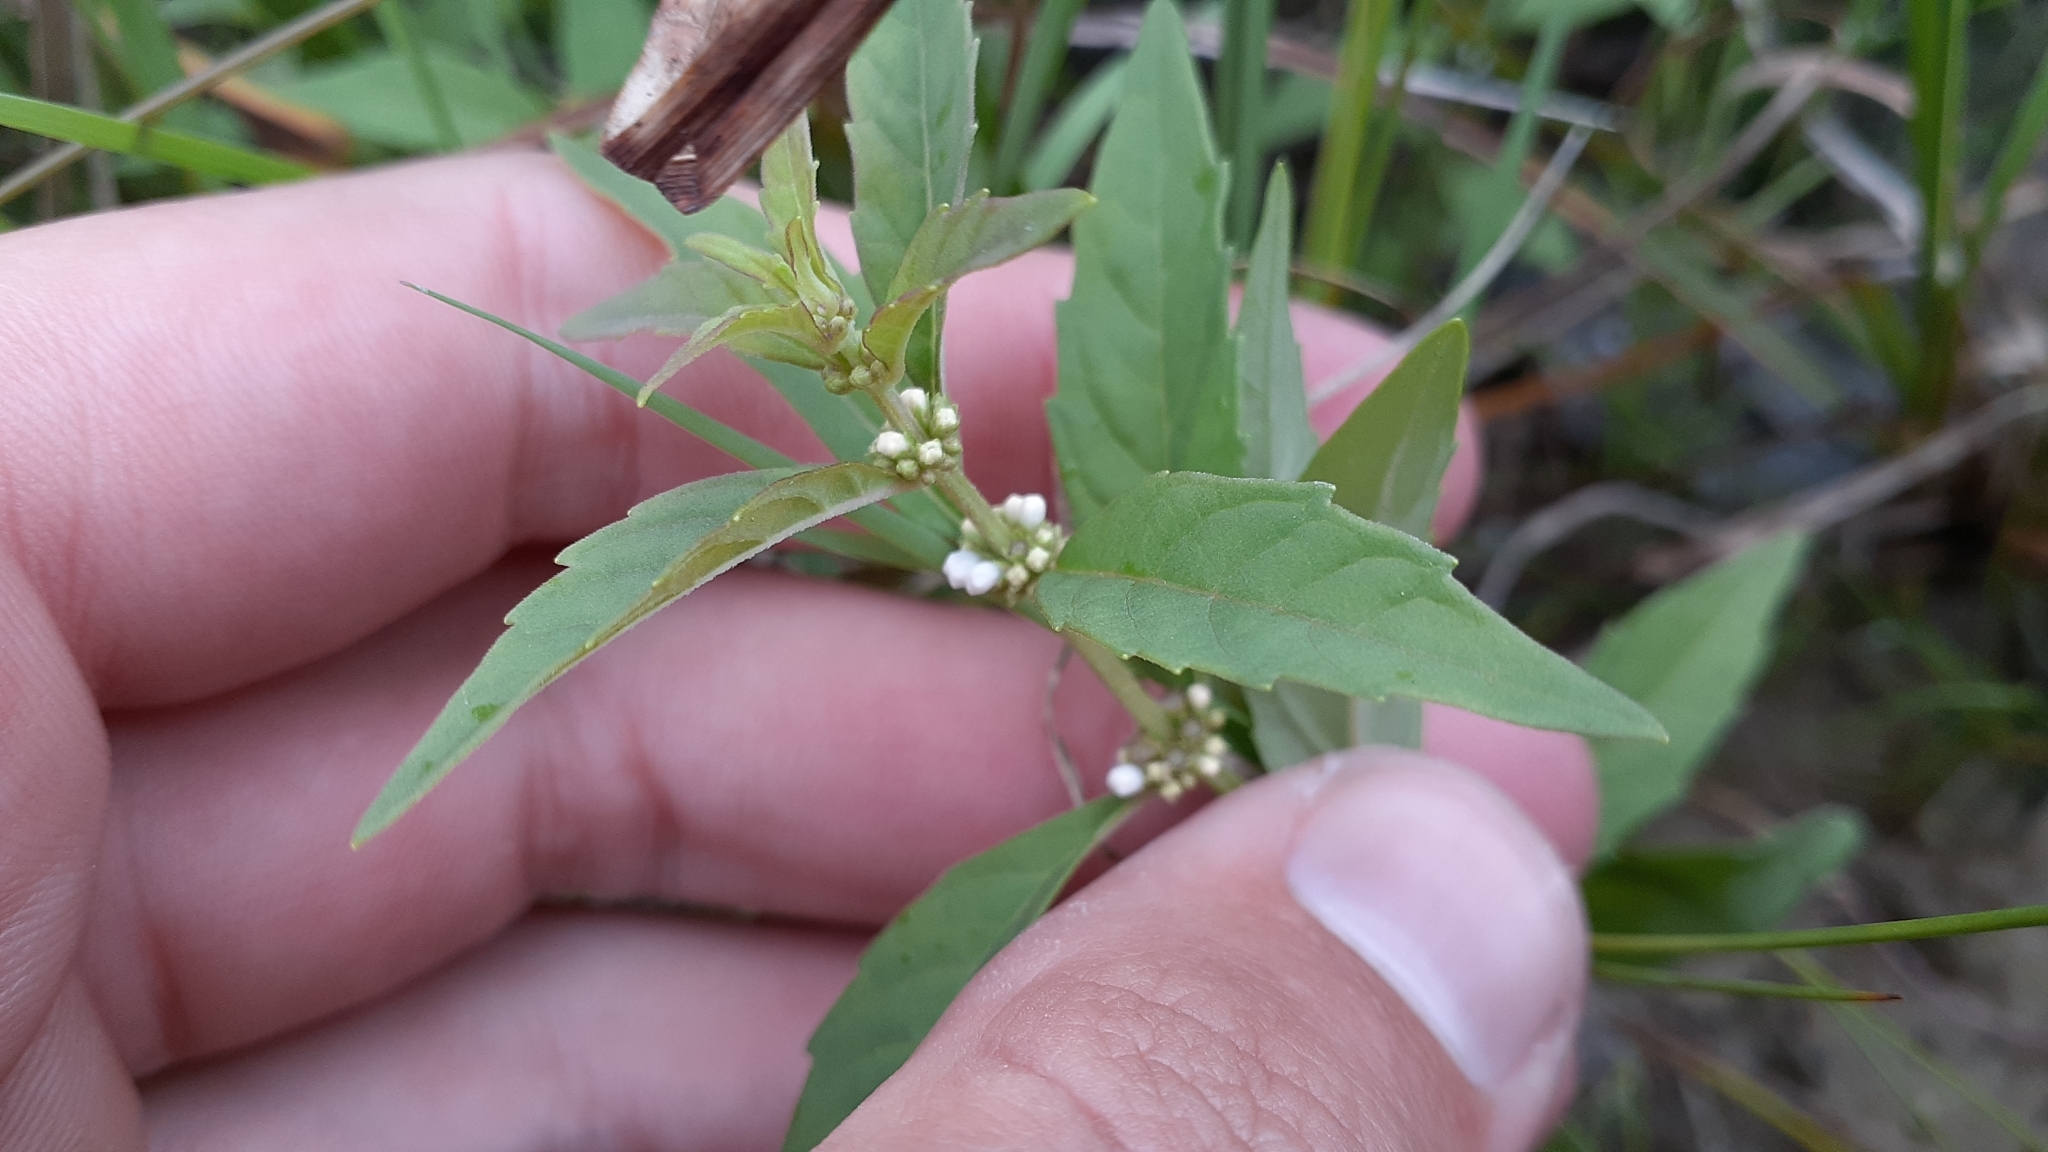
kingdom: Plantae
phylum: Tracheophyta
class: Magnoliopsida
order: Lamiales
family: Lamiaceae
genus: Lycopus
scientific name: Lycopus uniflorus
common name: Northern bugleweed
